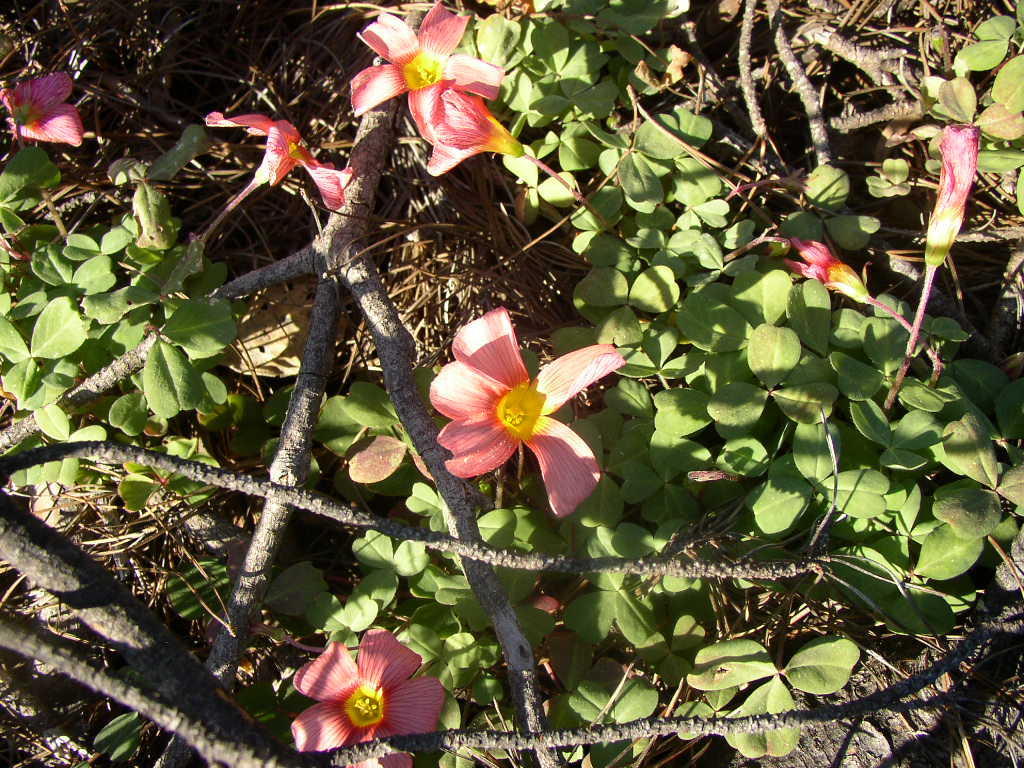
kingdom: Plantae
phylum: Tracheophyta
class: Magnoliopsida
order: Oxalidales
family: Oxalidaceae
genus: Oxalis
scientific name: Oxalis obtusa
